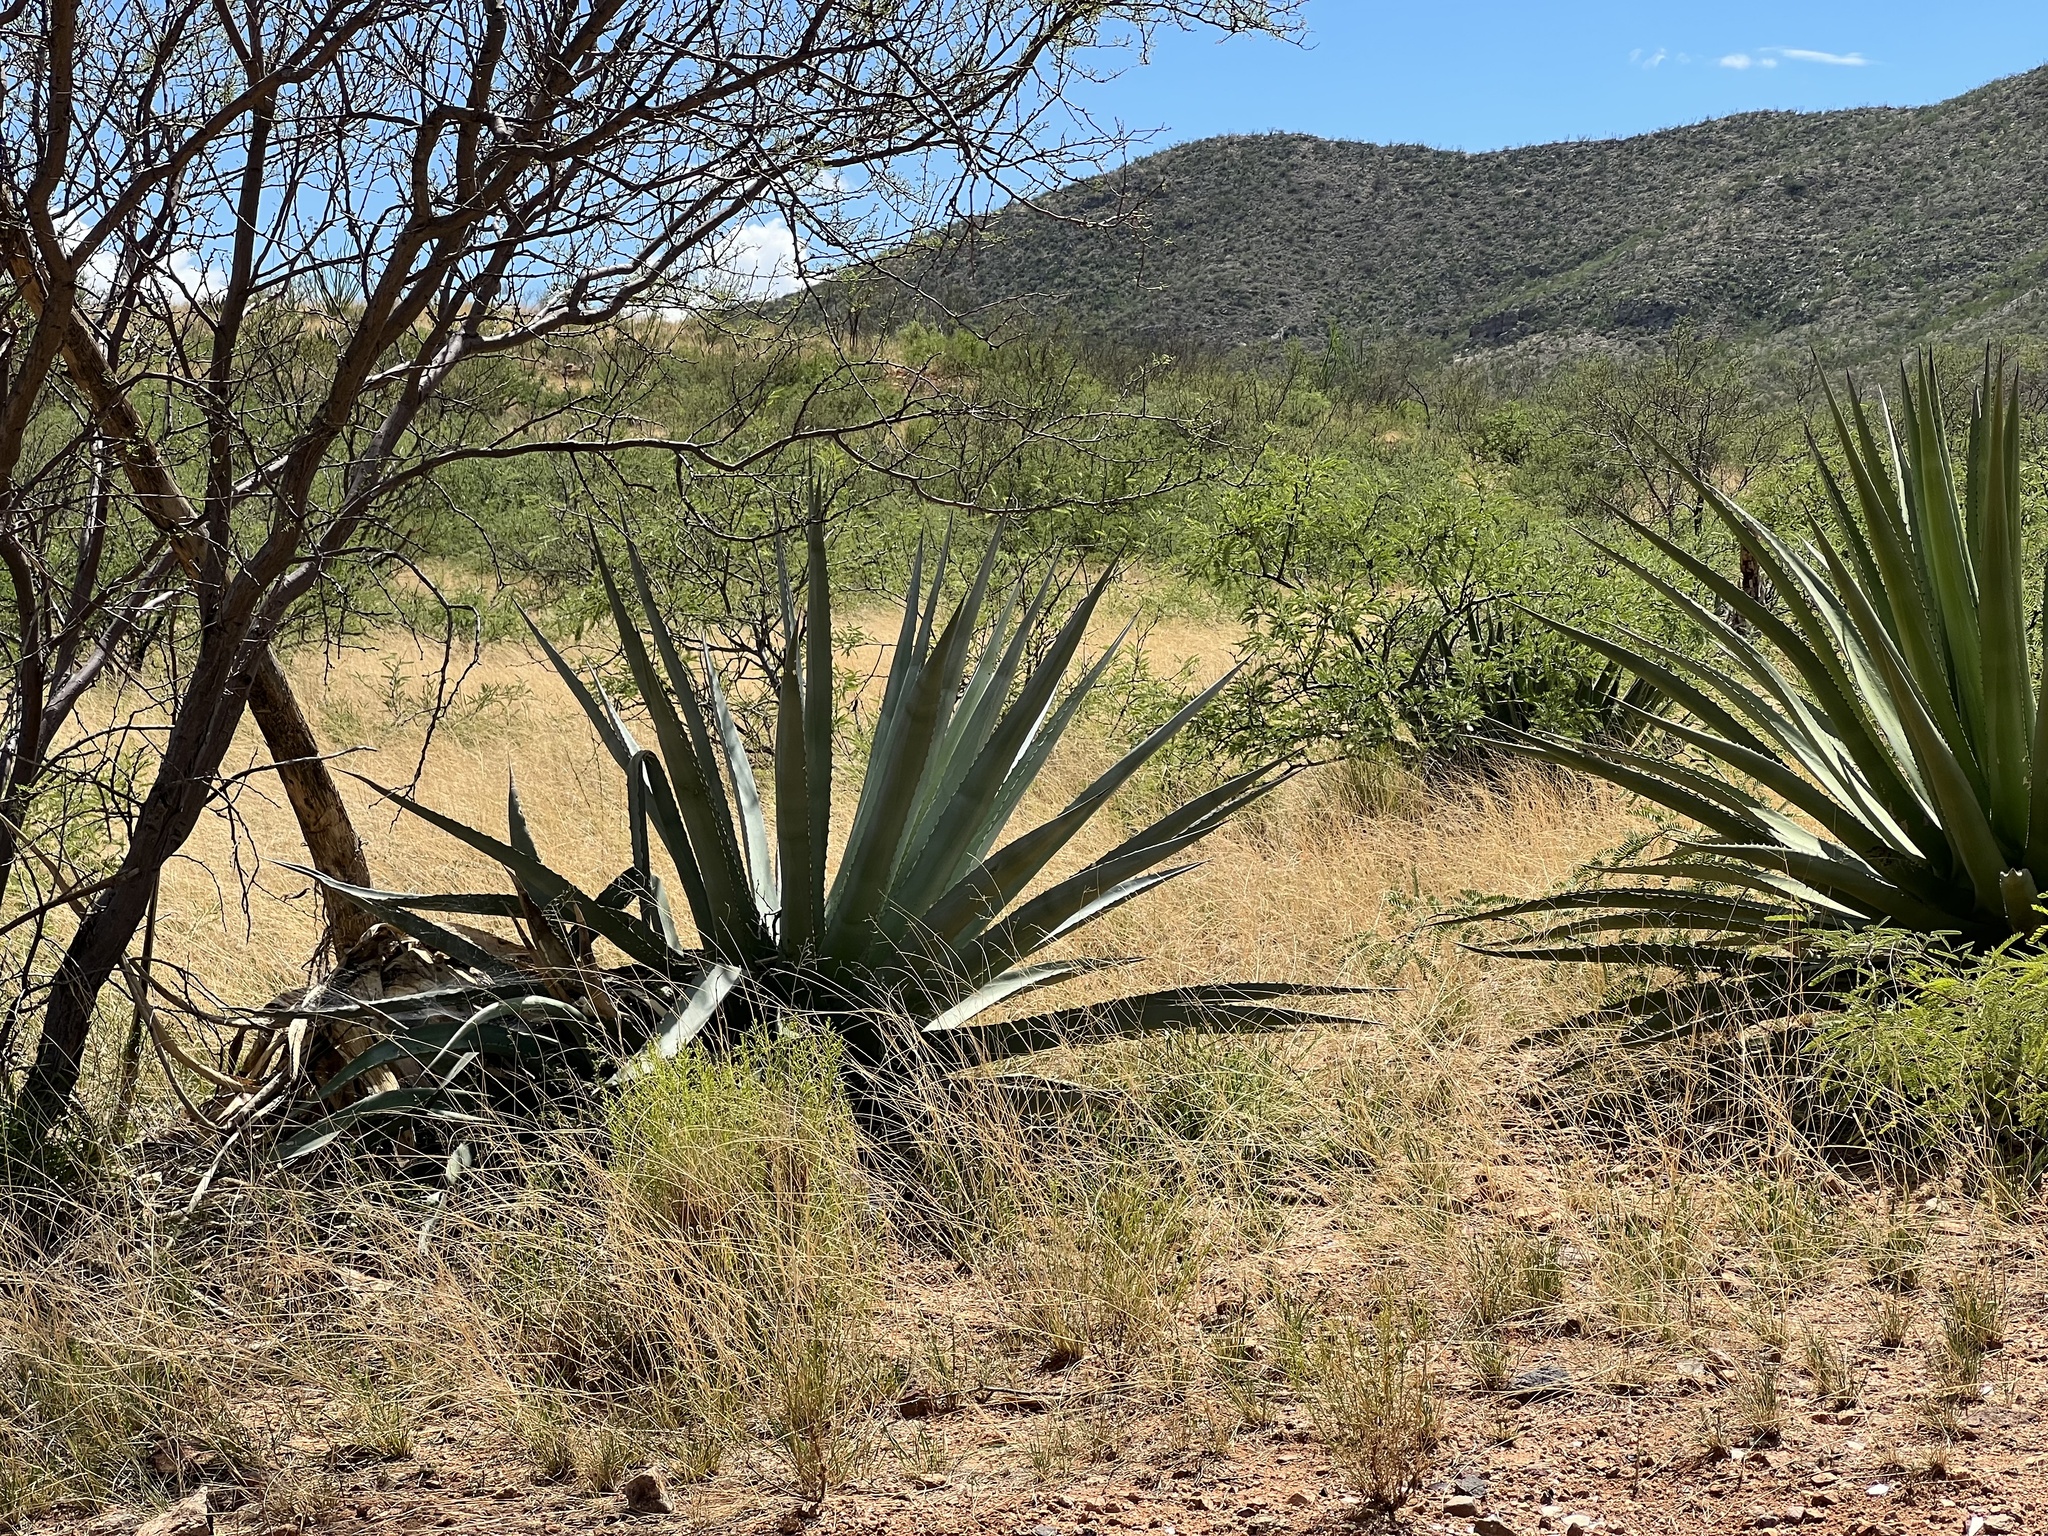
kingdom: Plantae
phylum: Tracheophyta
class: Liliopsida
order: Asparagales
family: Asparagaceae
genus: Agave
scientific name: Agave palmeri
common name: Palmer agave
